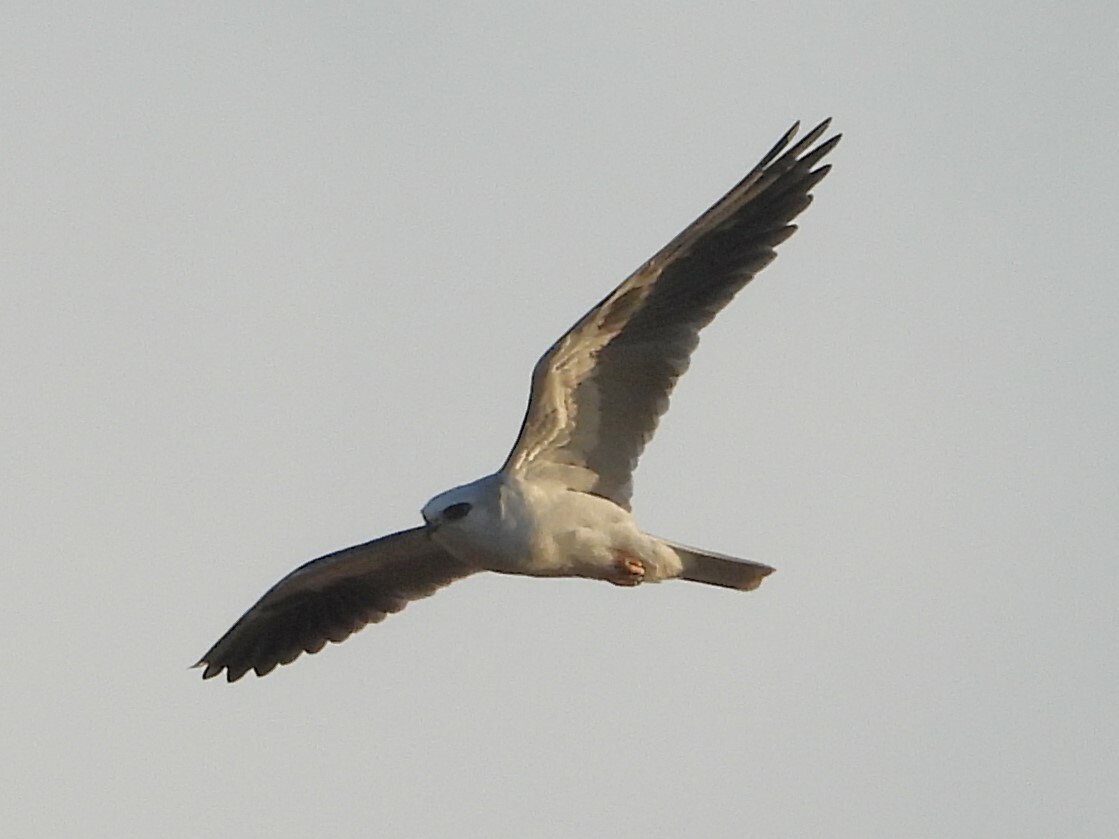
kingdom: Animalia
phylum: Chordata
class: Aves
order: Accipitriformes
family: Accipitridae
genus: Elanus
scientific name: Elanus leucurus
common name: White-tailed kite
